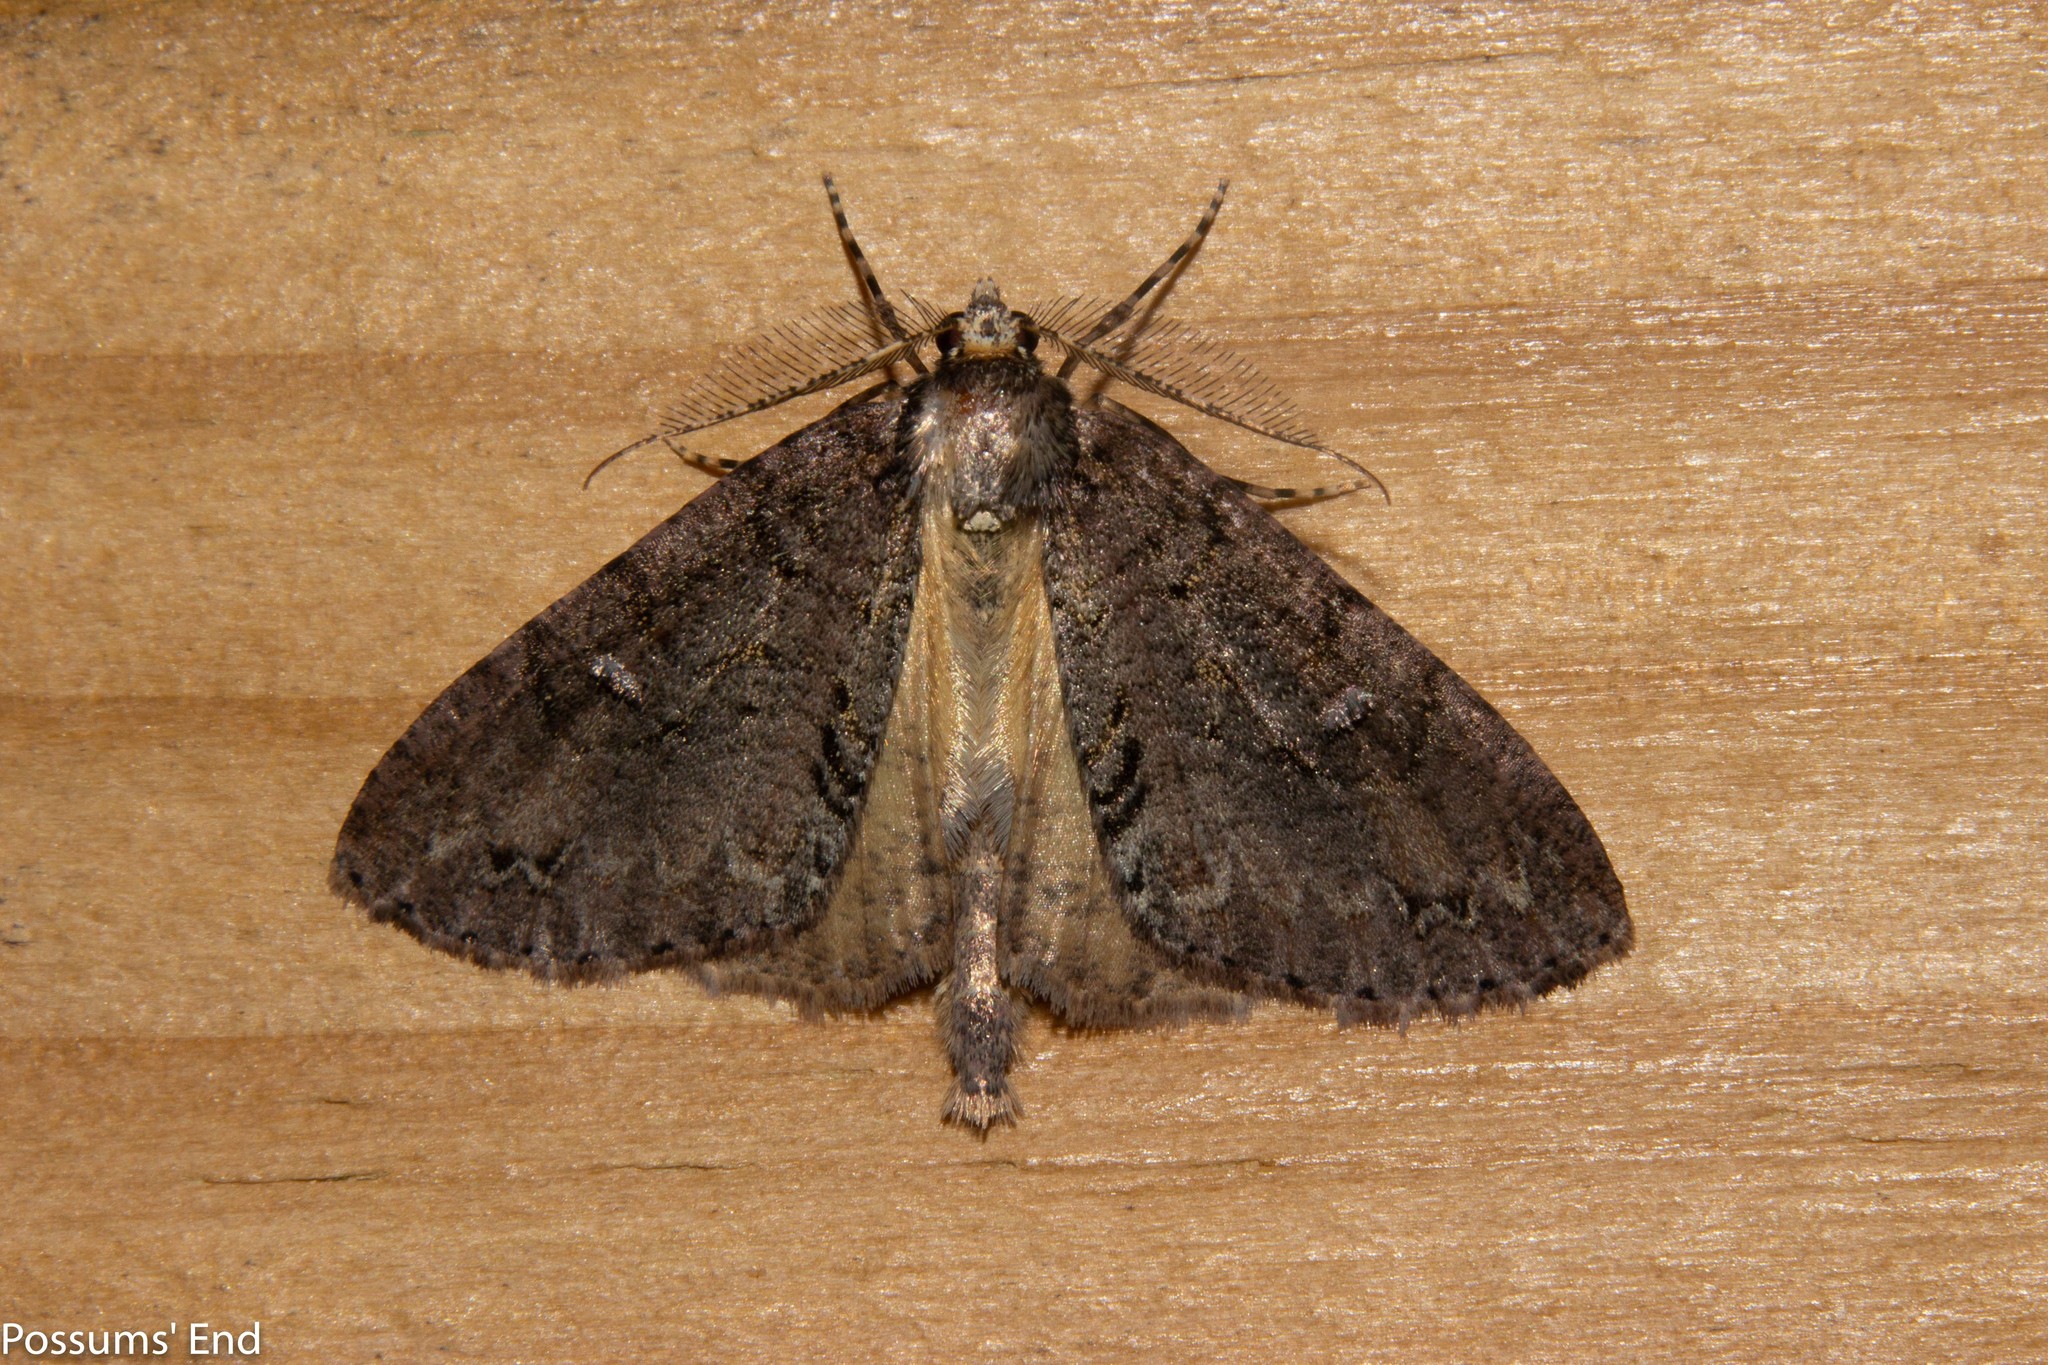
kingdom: Animalia
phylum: Arthropoda
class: Insecta
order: Lepidoptera
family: Geometridae
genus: Pseudocoremia
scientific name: Pseudocoremia suavis
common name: Common forest looper
